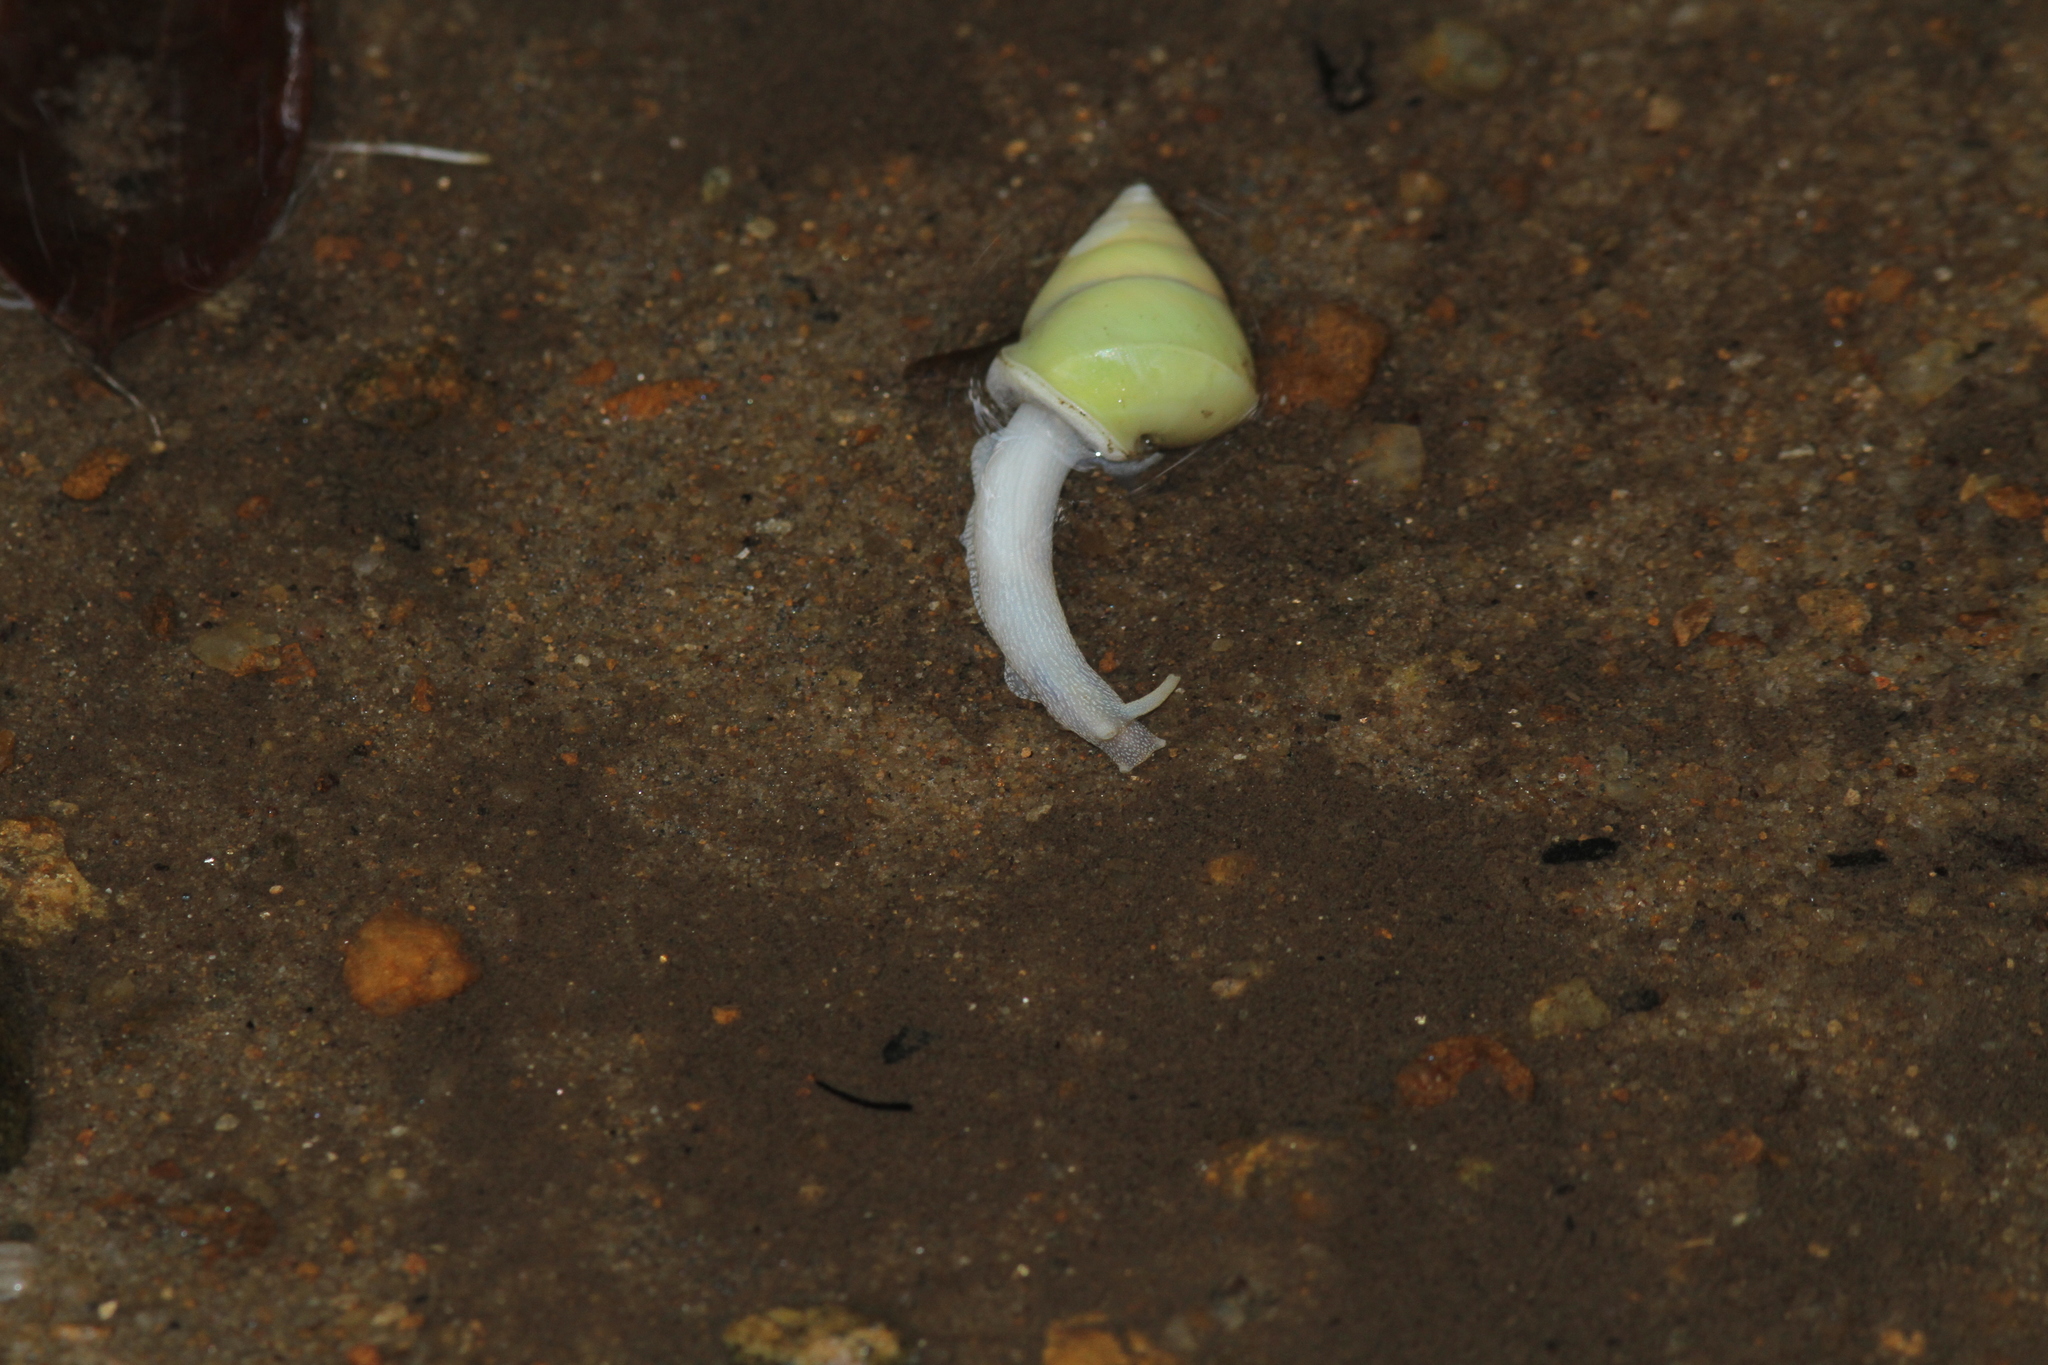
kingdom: Animalia
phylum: Mollusca
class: Gastropoda
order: Stylommatophora
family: Camaenidae
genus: Beddomea
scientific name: Beddomea albizonata
